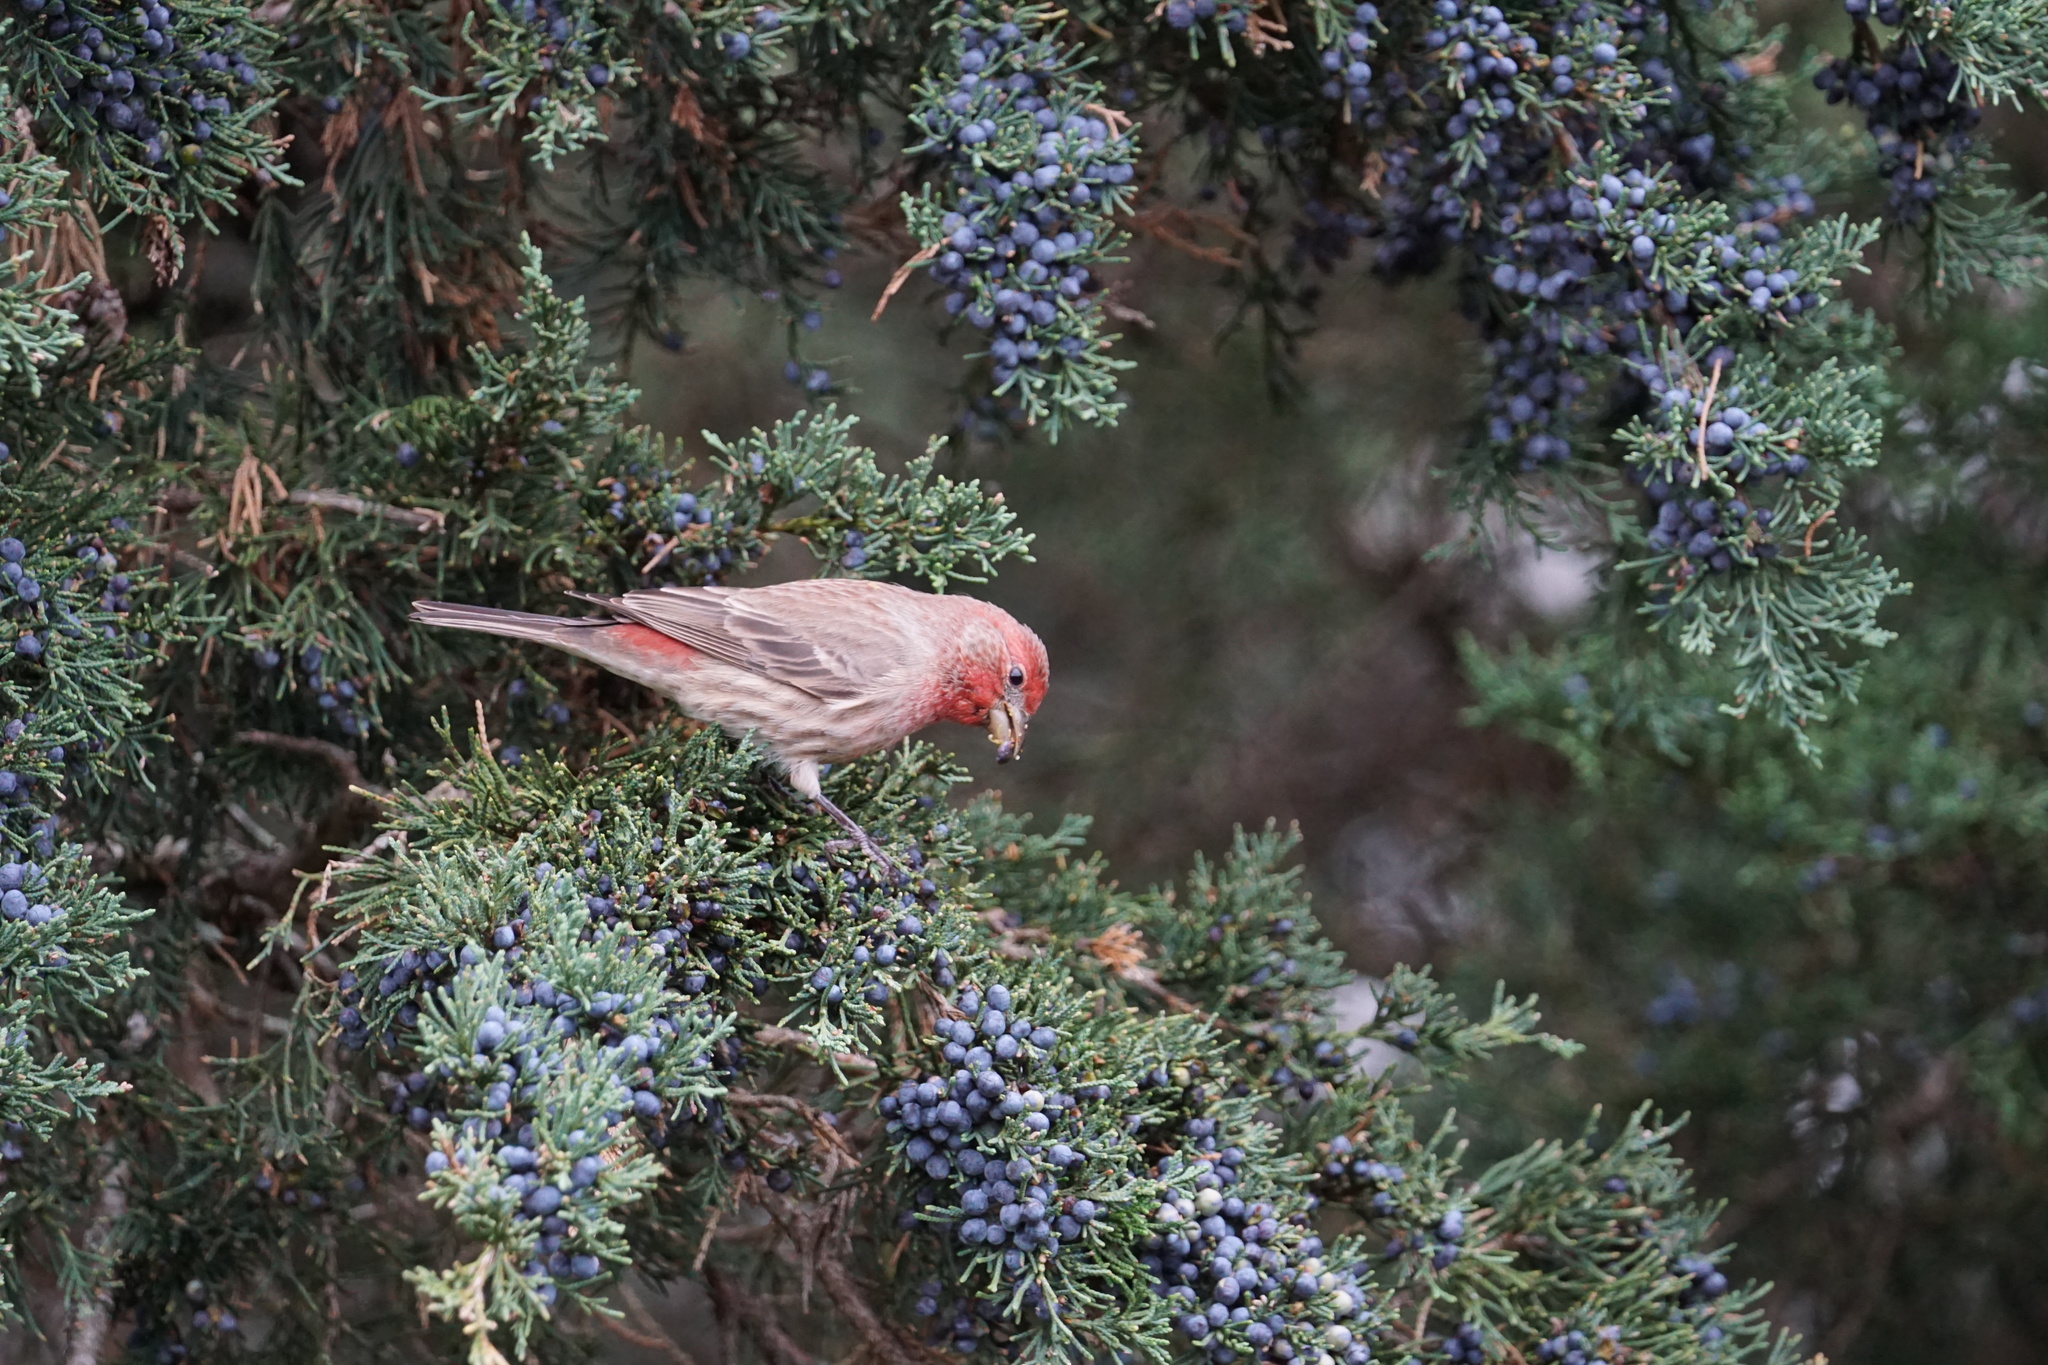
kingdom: Animalia
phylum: Chordata
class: Aves
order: Passeriformes
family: Fringillidae
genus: Haemorhous
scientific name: Haemorhous mexicanus
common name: House finch
